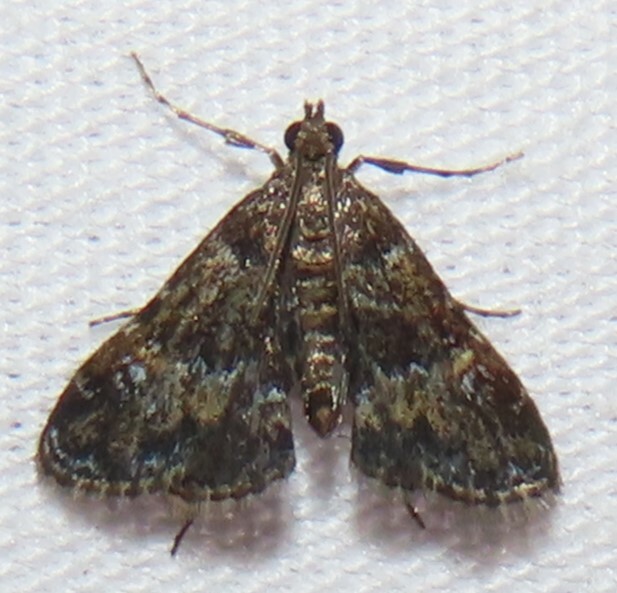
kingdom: Animalia
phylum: Arthropoda
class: Insecta
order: Lepidoptera
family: Crambidae
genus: Elophila
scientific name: Elophila obliteralis
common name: Waterlily leafcutter moth
